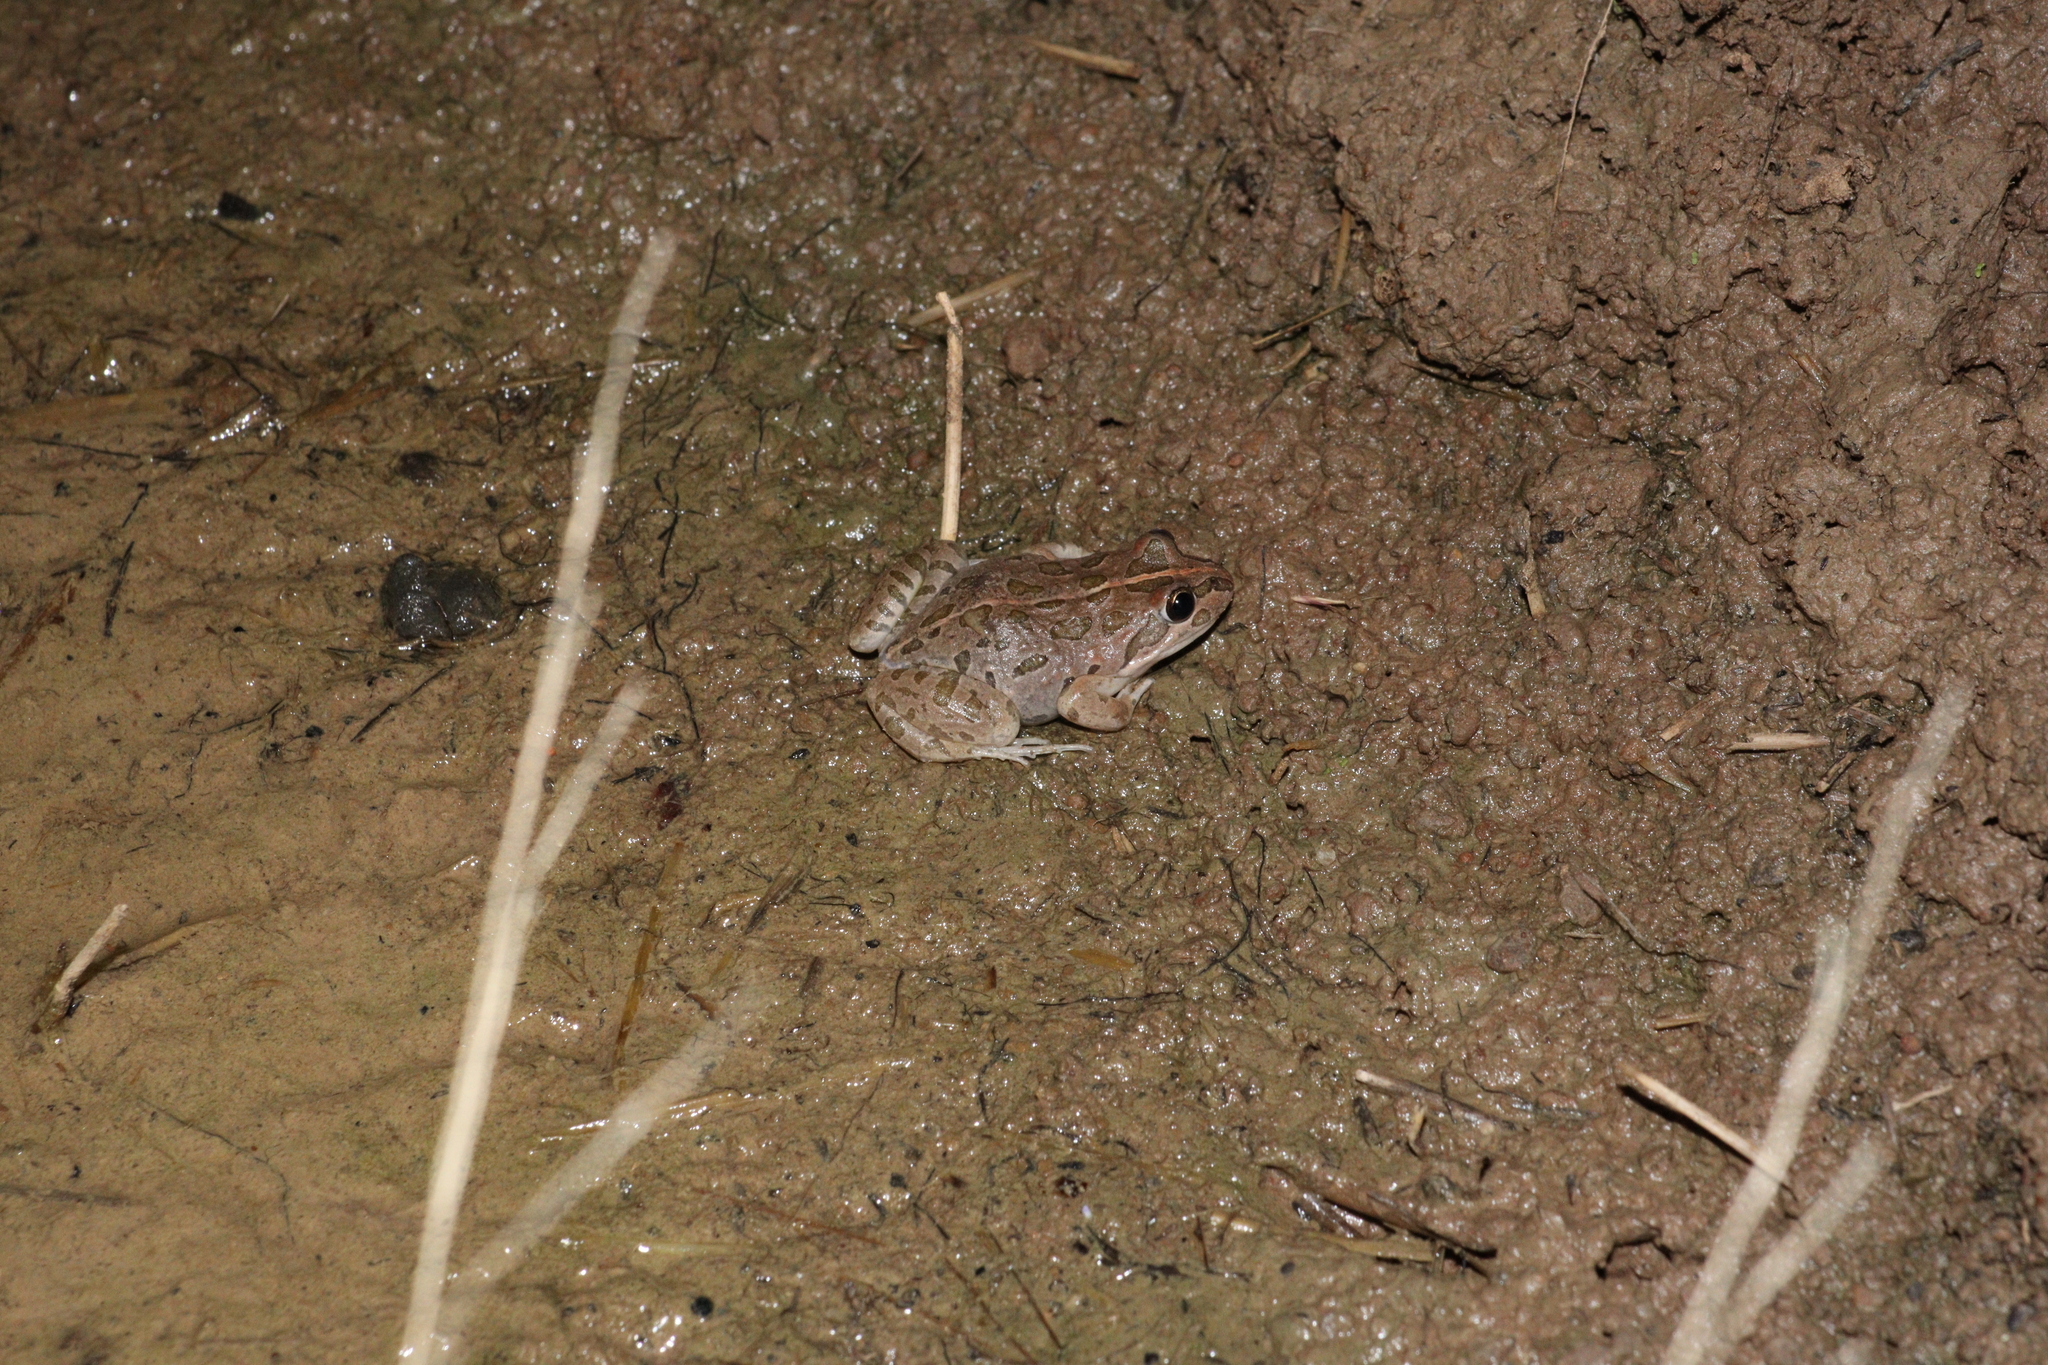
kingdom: Animalia
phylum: Chordata
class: Amphibia
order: Anura
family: Limnodynastidae
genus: Limnodynastes
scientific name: Limnodynastes tasmaniensis
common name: Spotted marsh frog
